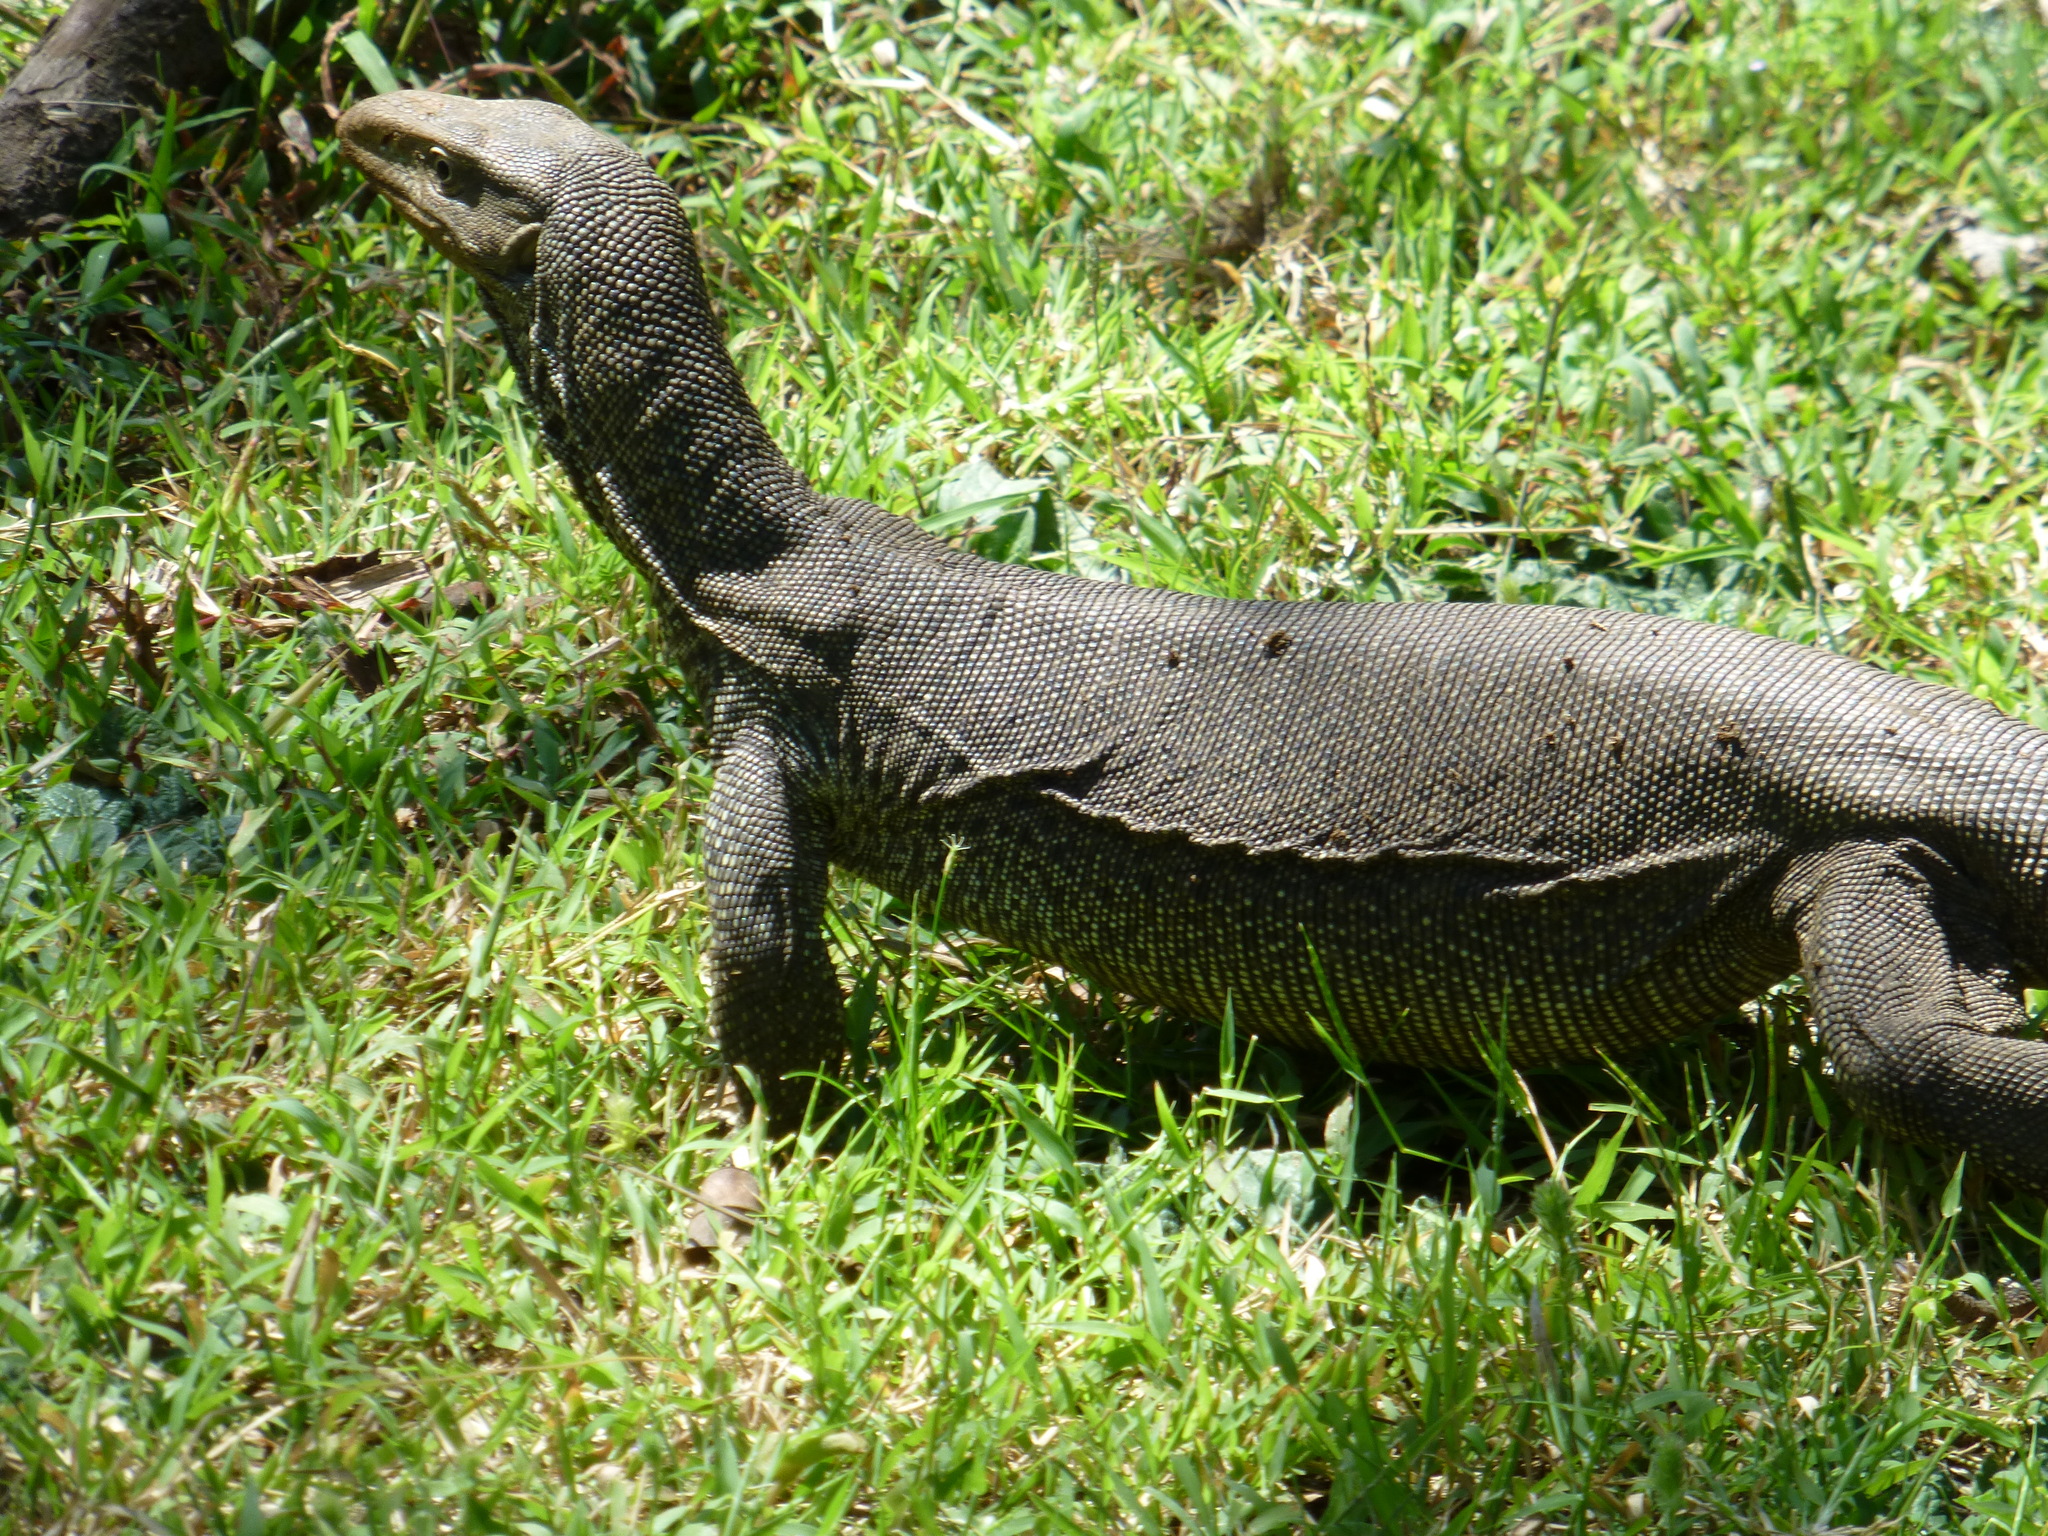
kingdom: Animalia
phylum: Chordata
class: Squamata
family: Varanidae
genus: Varanus
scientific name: Varanus bengalensis
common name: Bengal monitor
